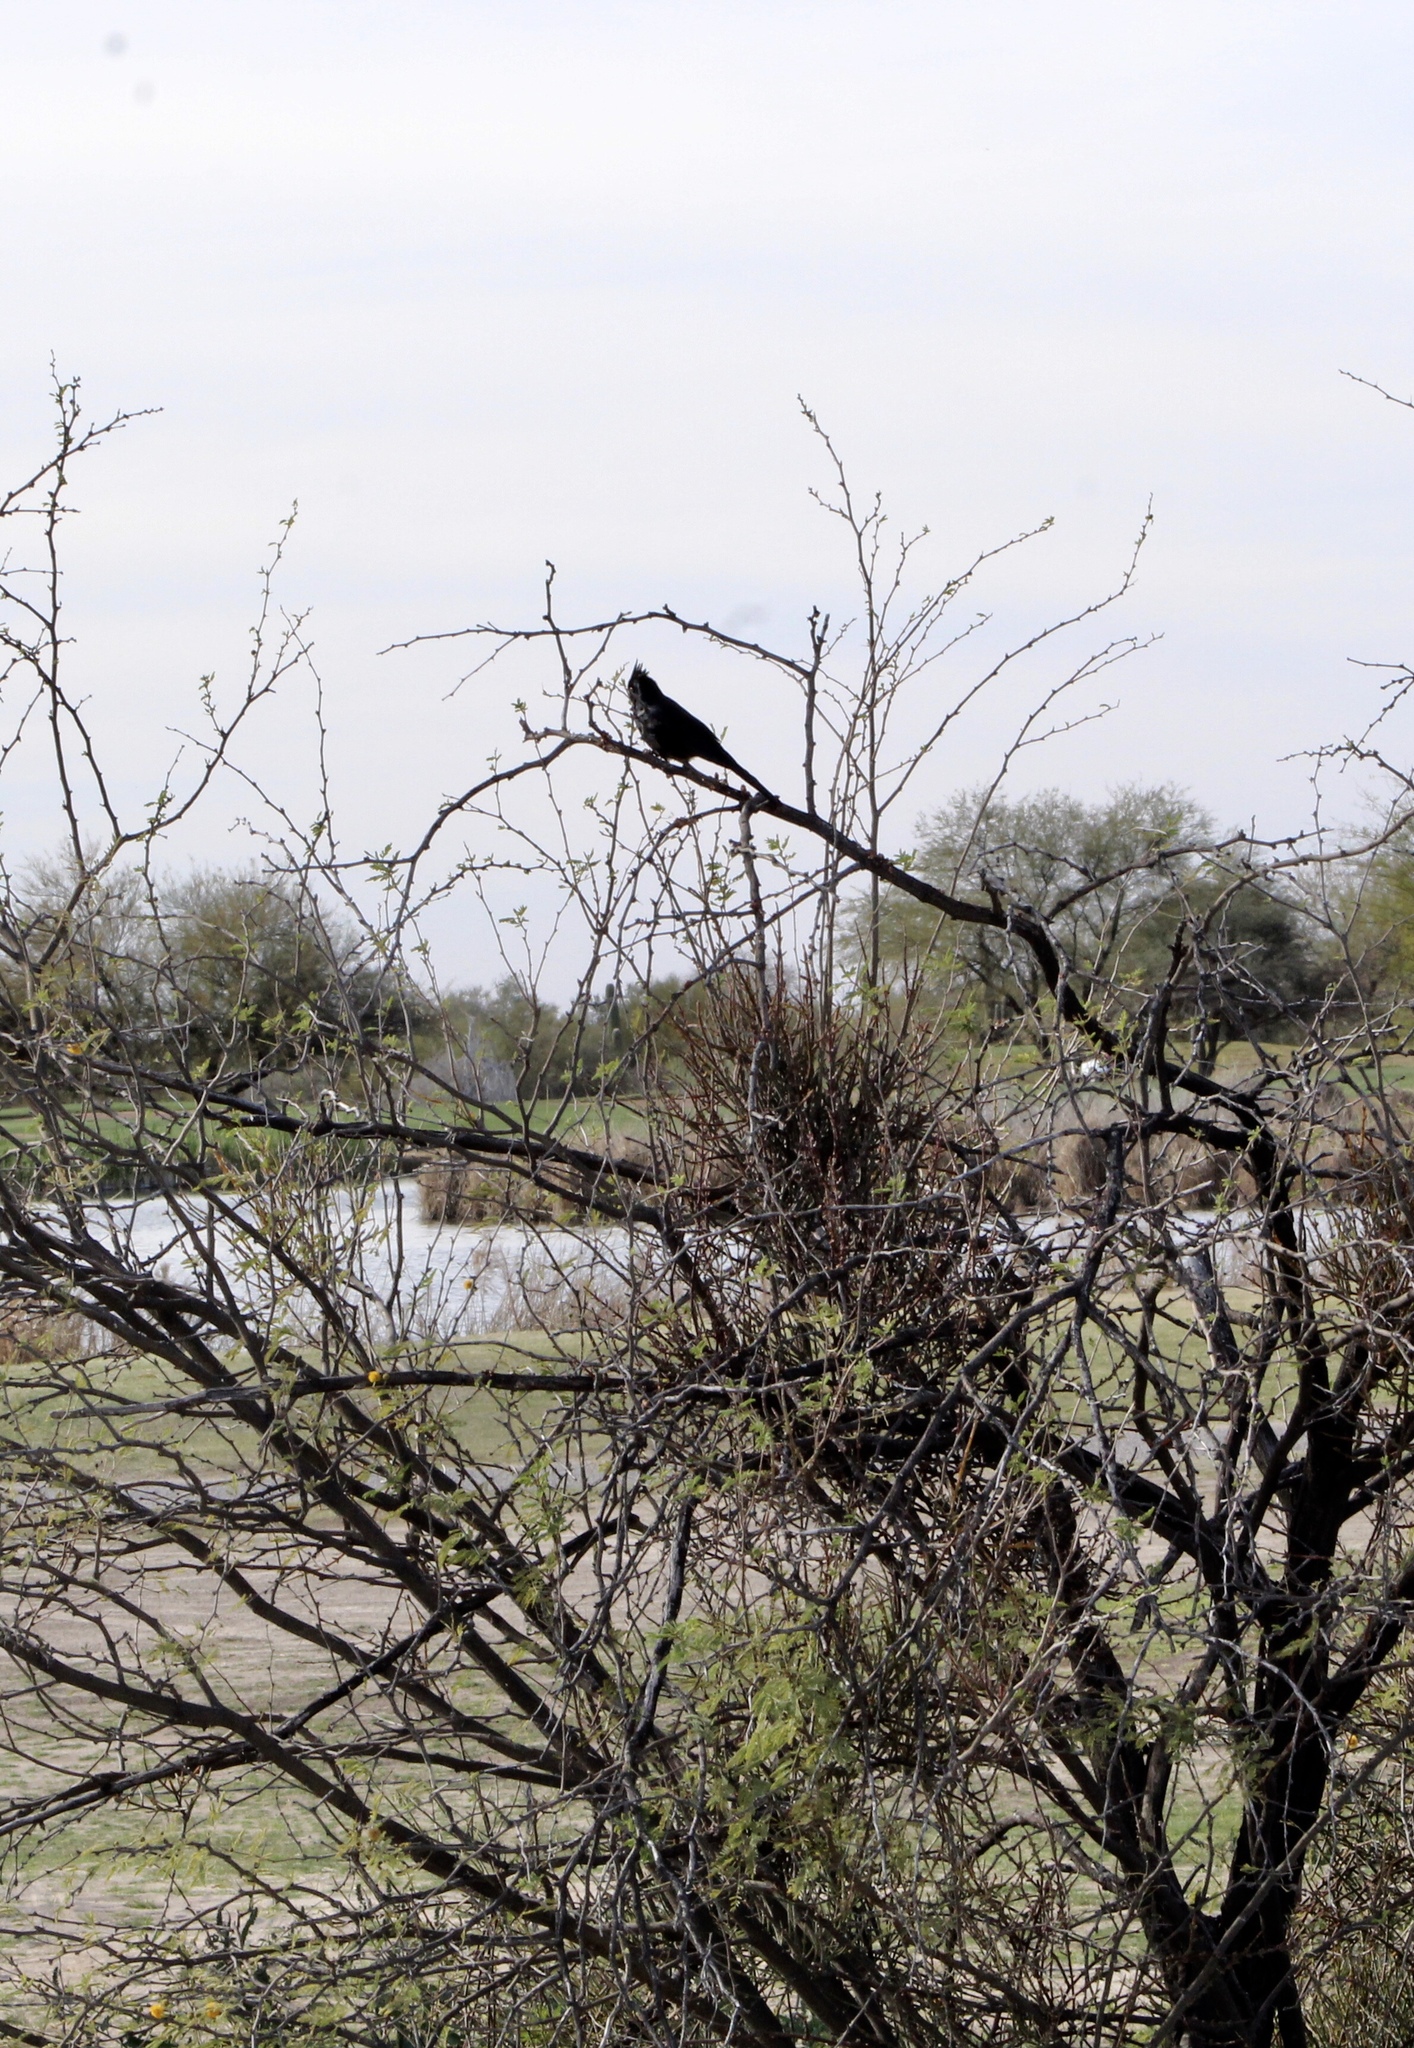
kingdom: Animalia
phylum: Chordata
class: Aves
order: Passeriformes
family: Ptilogonatidae
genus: Phainopepla
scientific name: Phainopepla nitens
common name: Phainopepla
